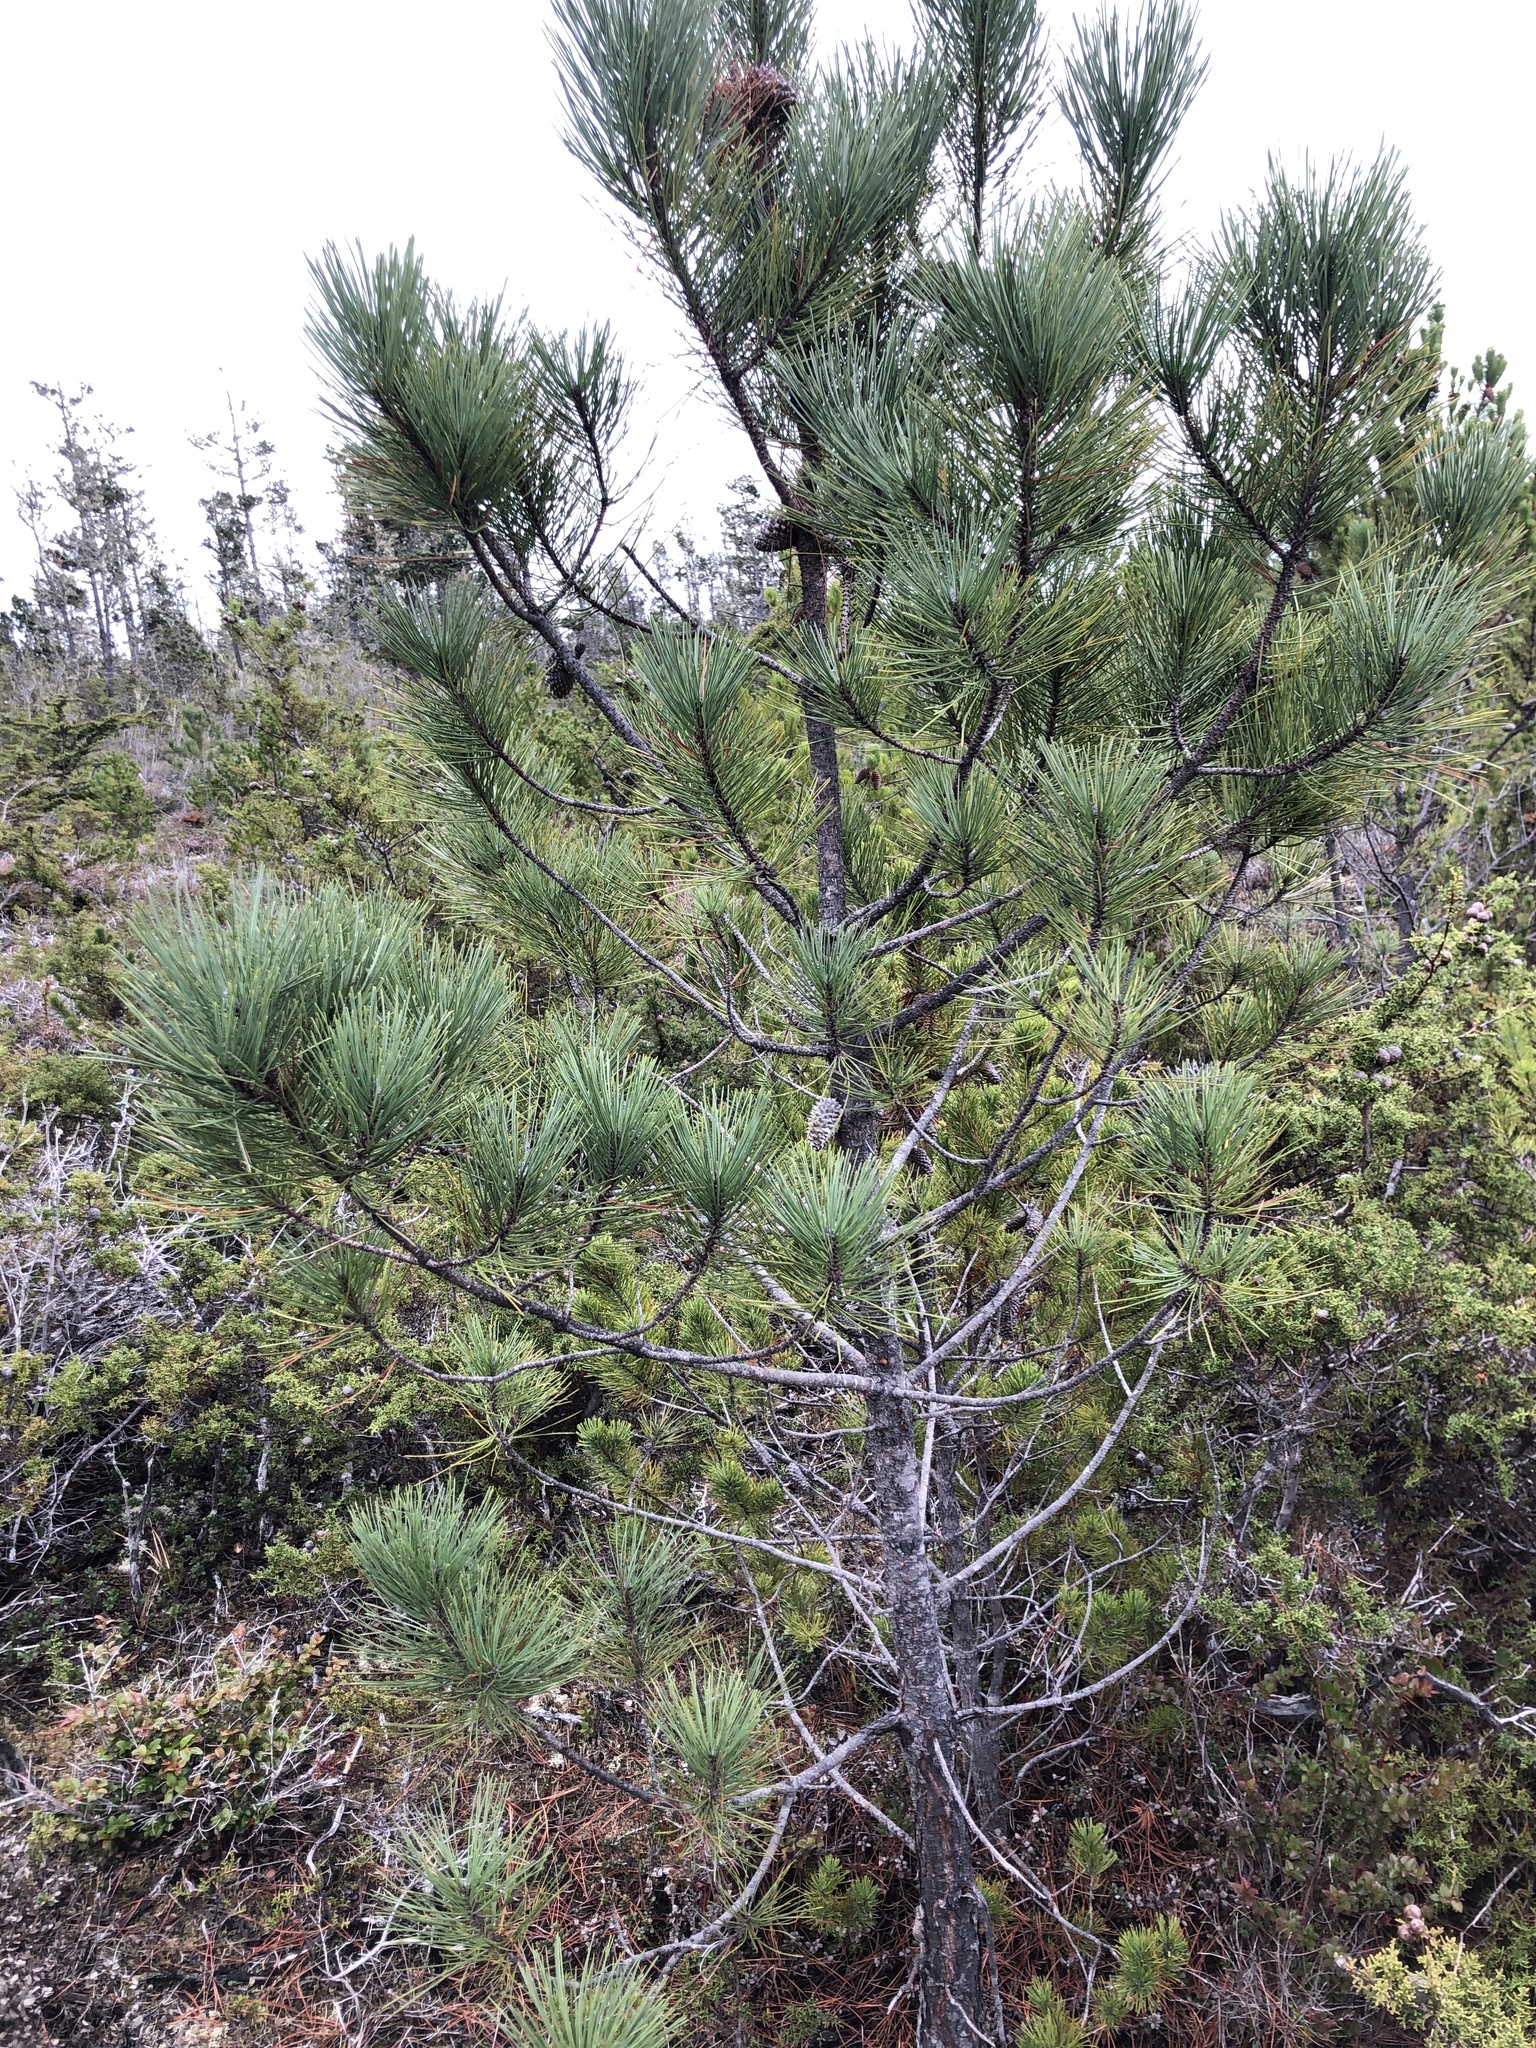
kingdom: Plantae
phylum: Tracheophyta
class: Pinopsida
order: Pinales
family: Pinaceae
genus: Pinus
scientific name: Pinus muricata
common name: Bishop pine
